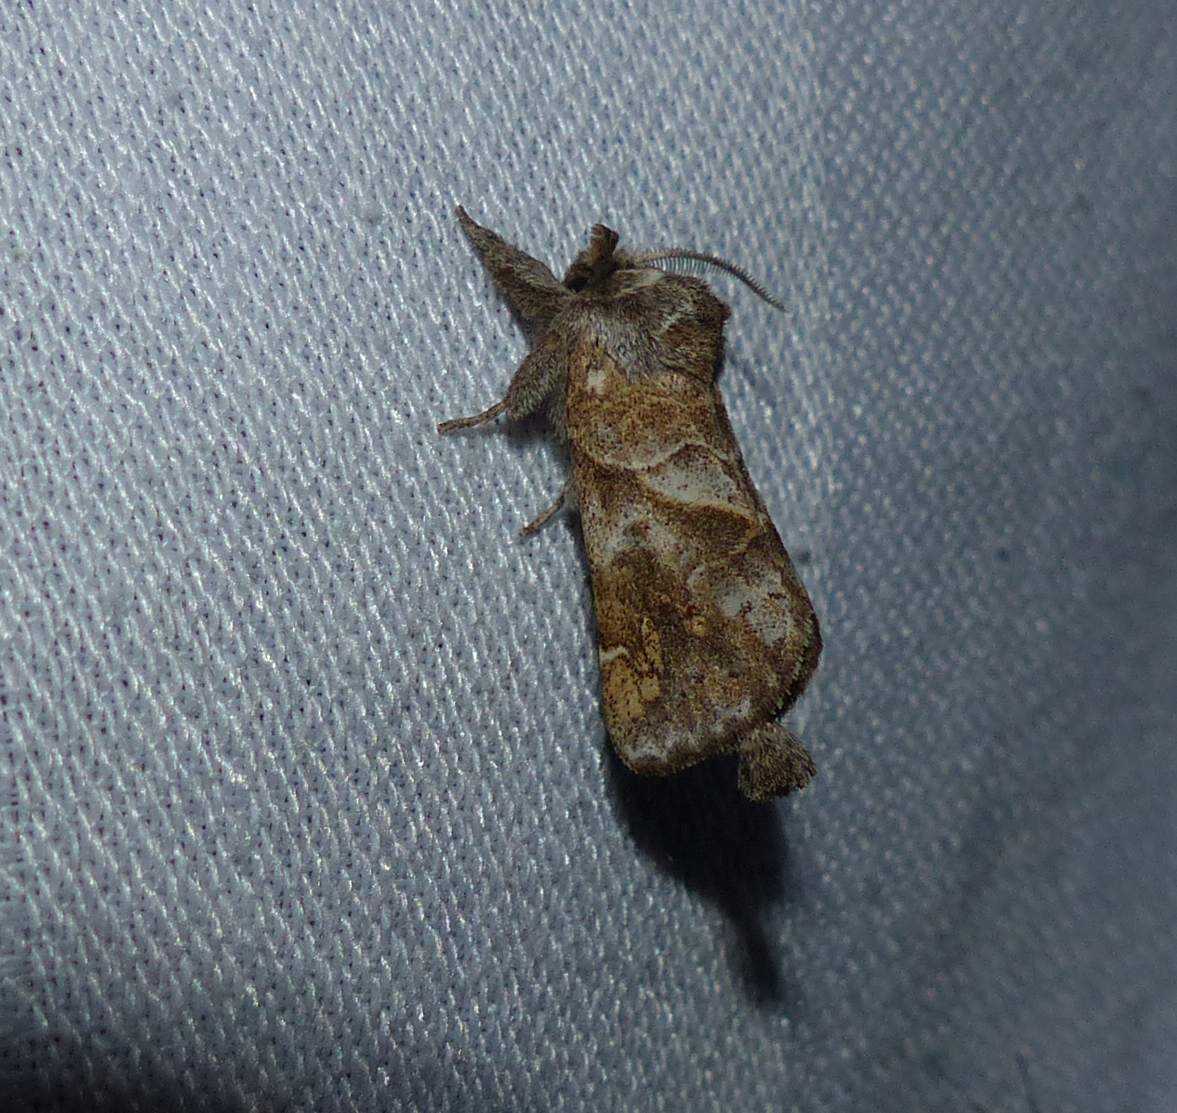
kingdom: Animalia
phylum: Arthropoda
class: Insecta
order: Lepidoptera
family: Notodontidae
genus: Clostera
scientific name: Clostera strigosa
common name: Striped chocolate-tip moth
